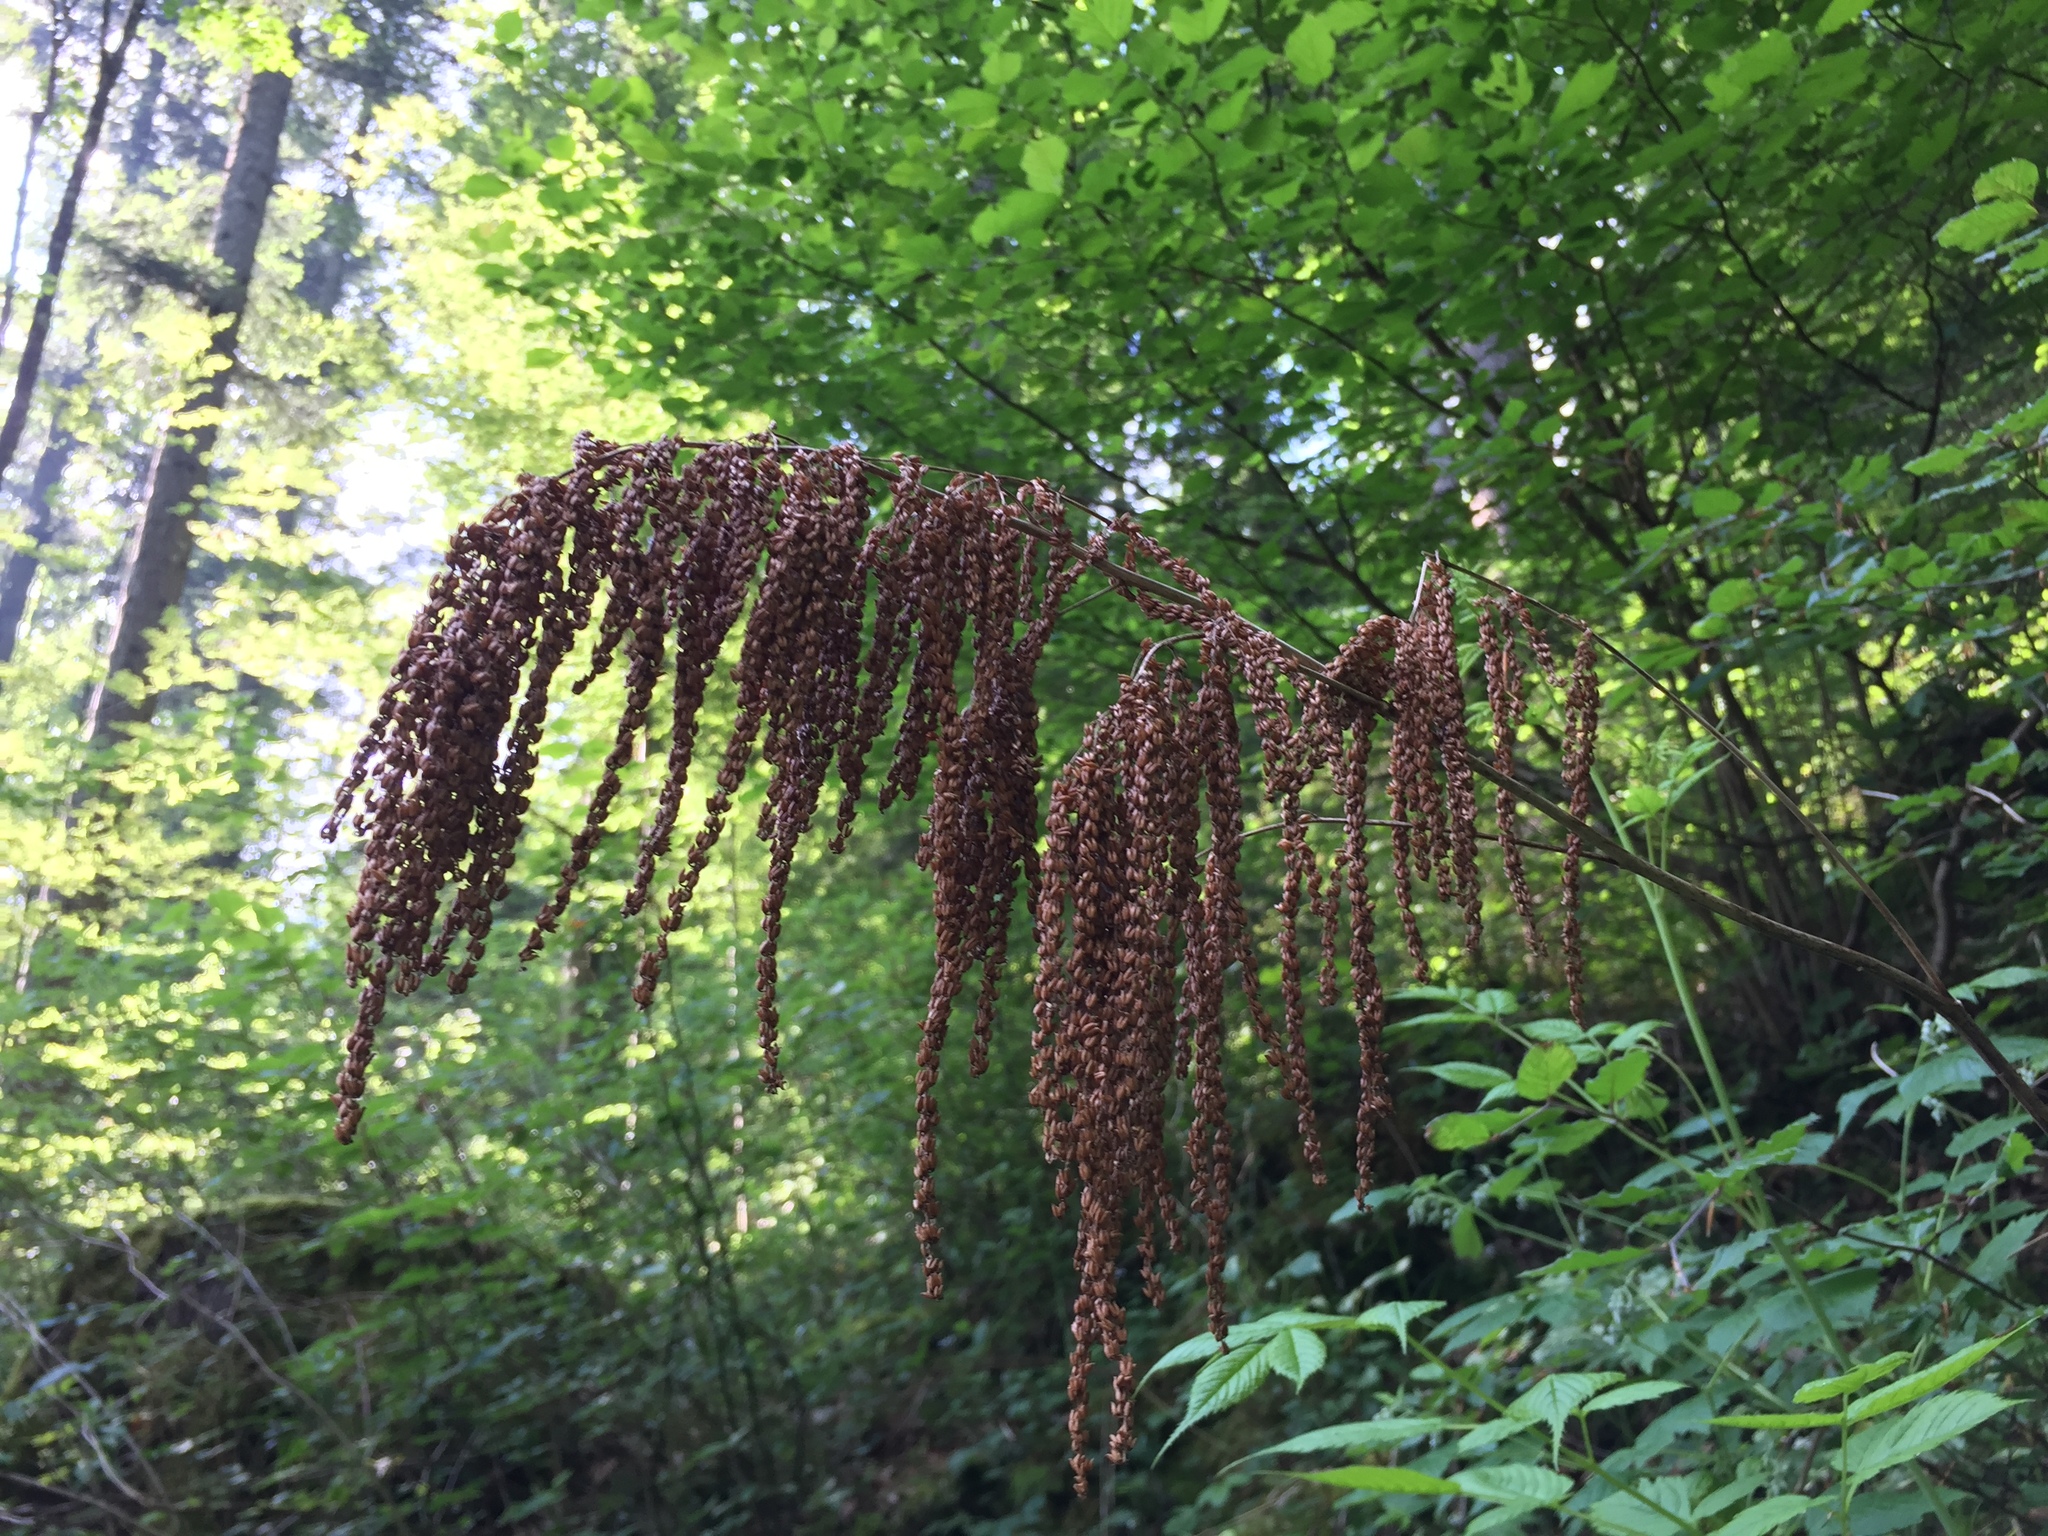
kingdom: Plantae
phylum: Tracheophyta
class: Magnoliopsida
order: Rosales
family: Rosaceae
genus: Aruncus
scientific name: Aruncus dioicus
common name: Buck's-beard
